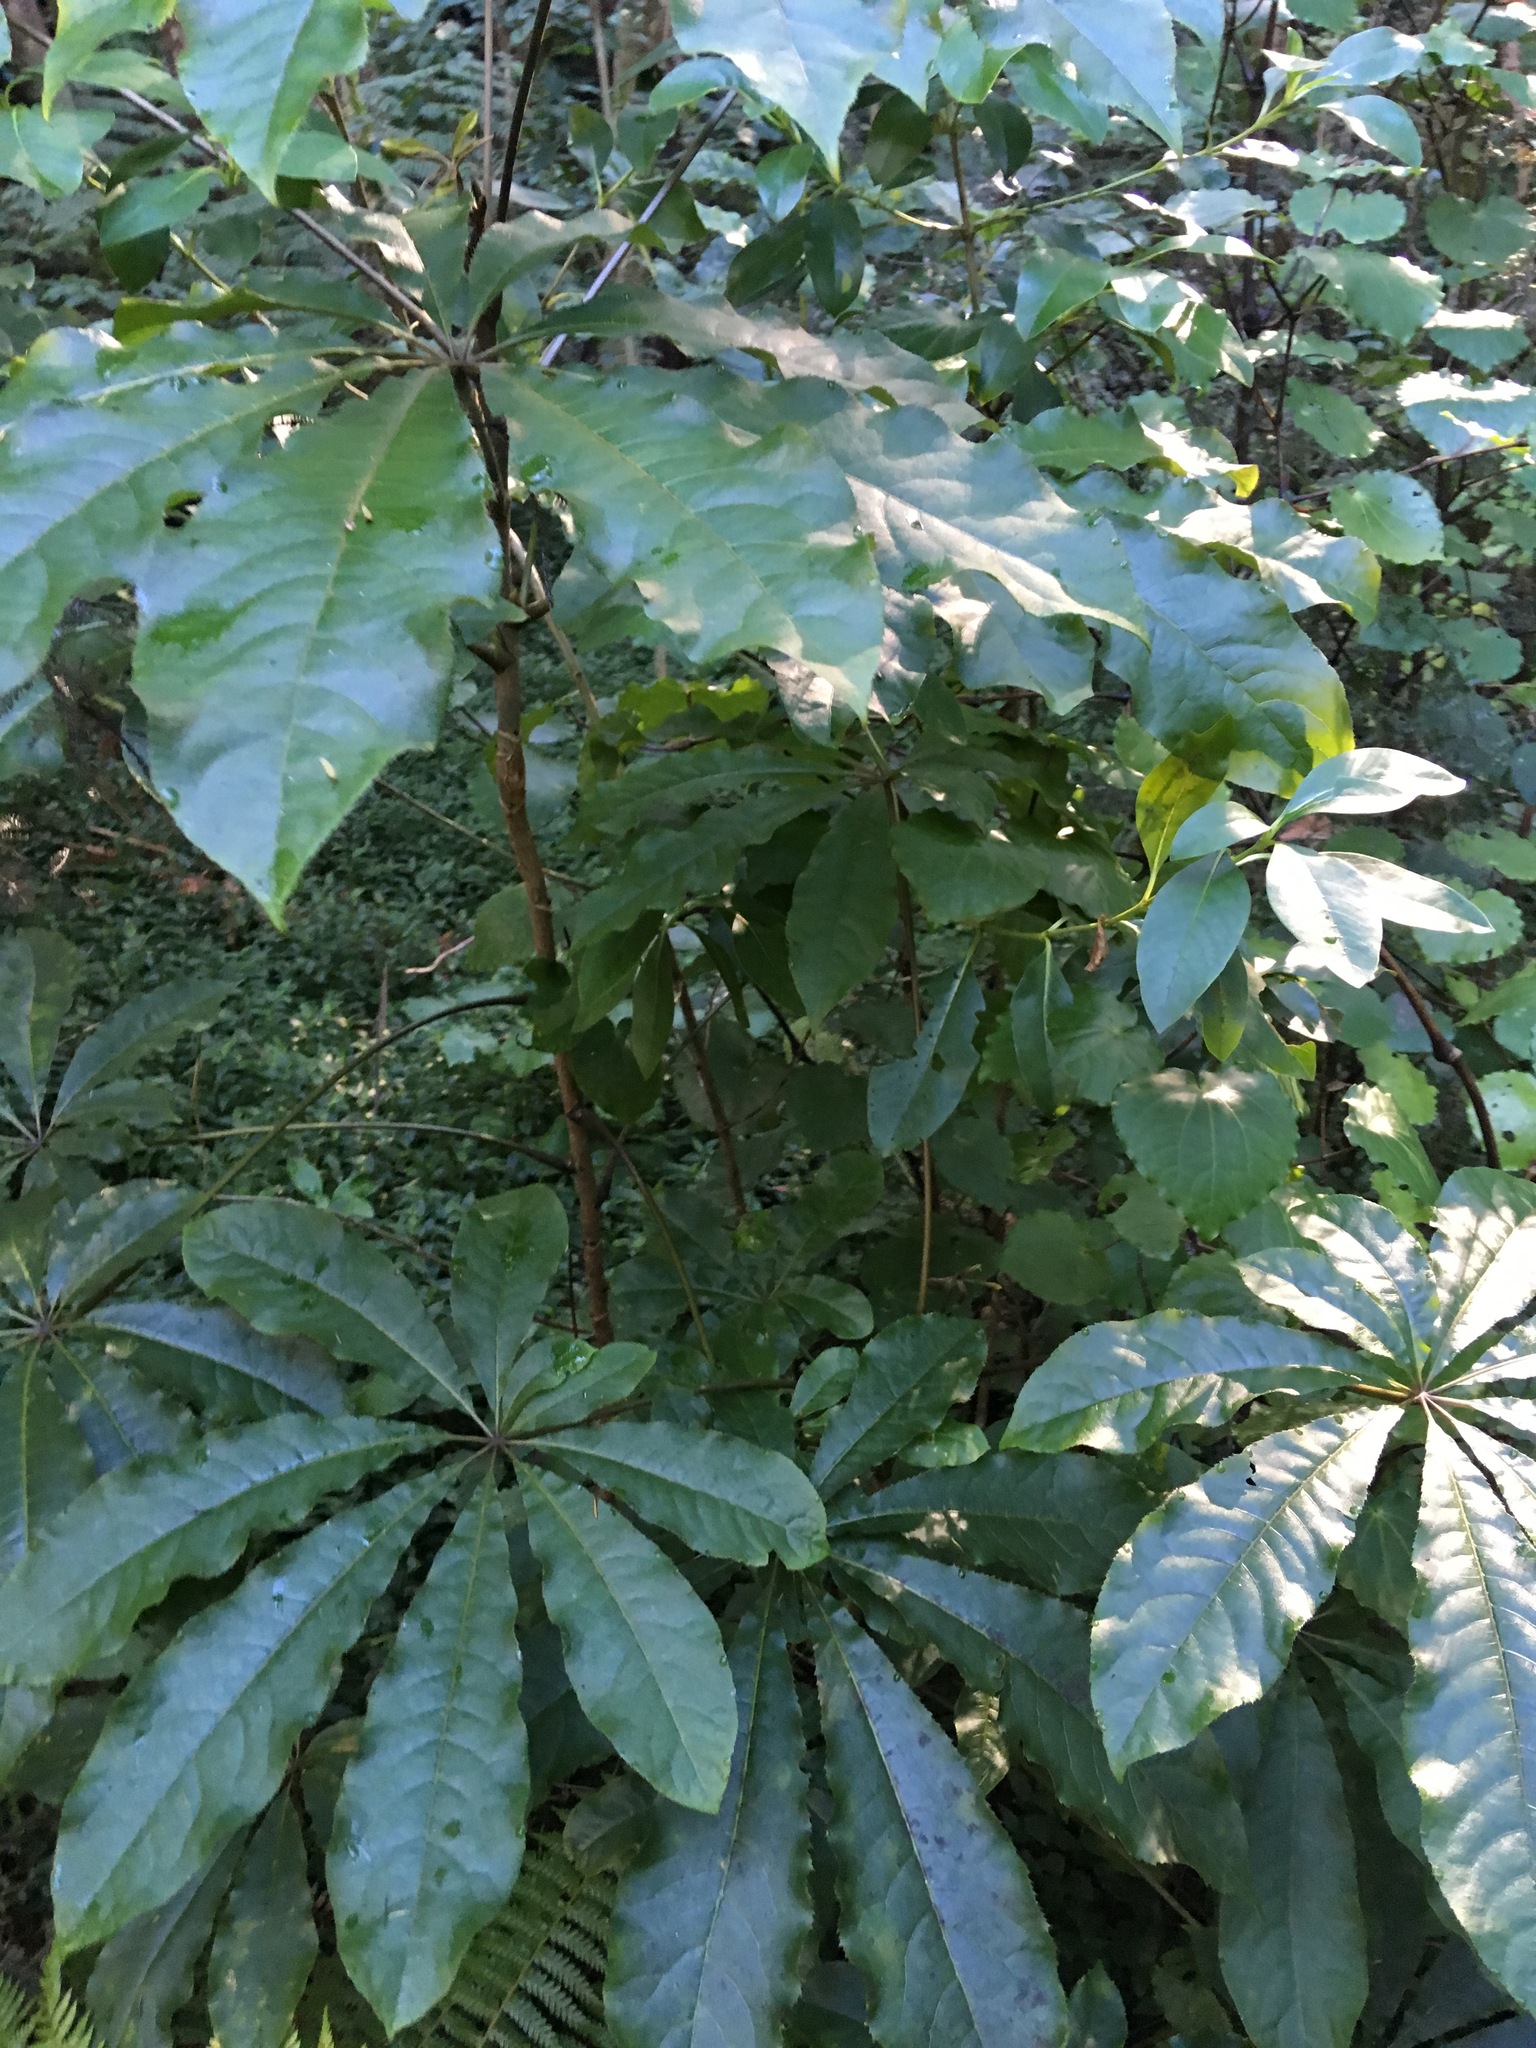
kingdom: Plantae
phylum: Tracheophyta
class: Magnoliopsida
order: Apiales
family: Araliaceae
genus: Schefflera
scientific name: Schefflera digitata
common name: Pate
